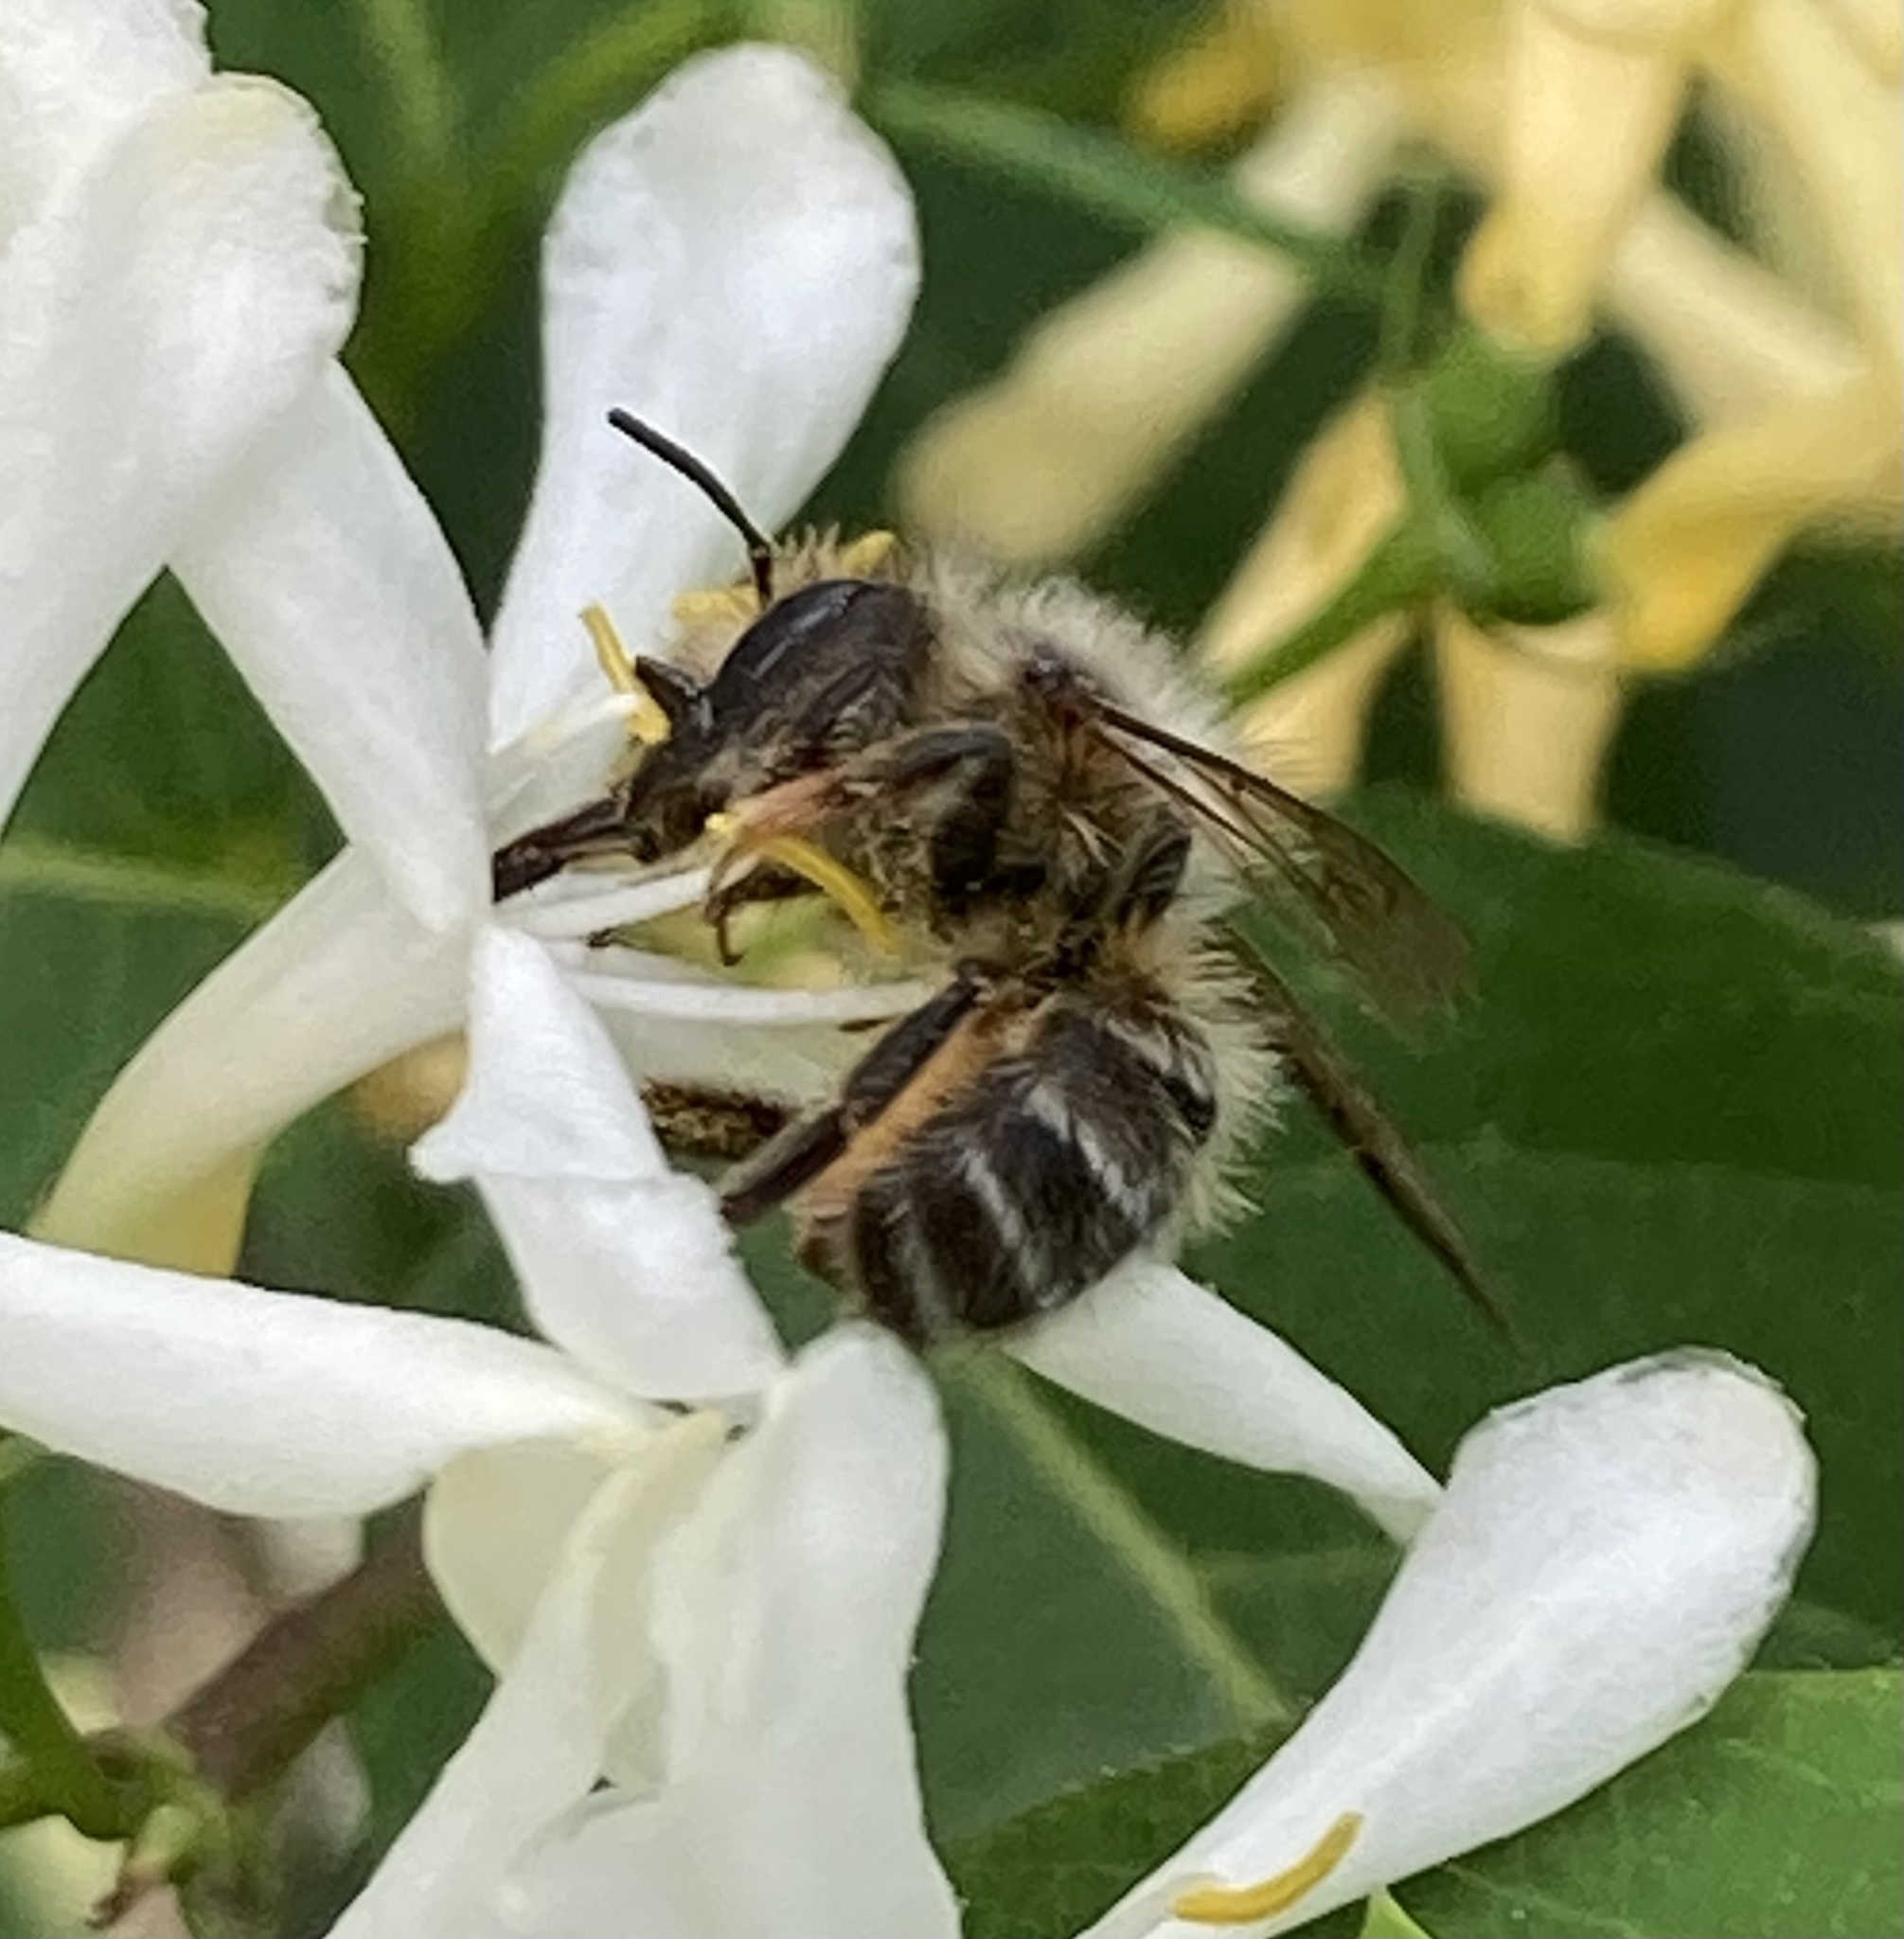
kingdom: Animalia
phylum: Arthropoda
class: Insecta
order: Hymenoptera
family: Megachilidae
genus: Osmia
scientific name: Osmia cornifrons
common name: Horn-faced bee
